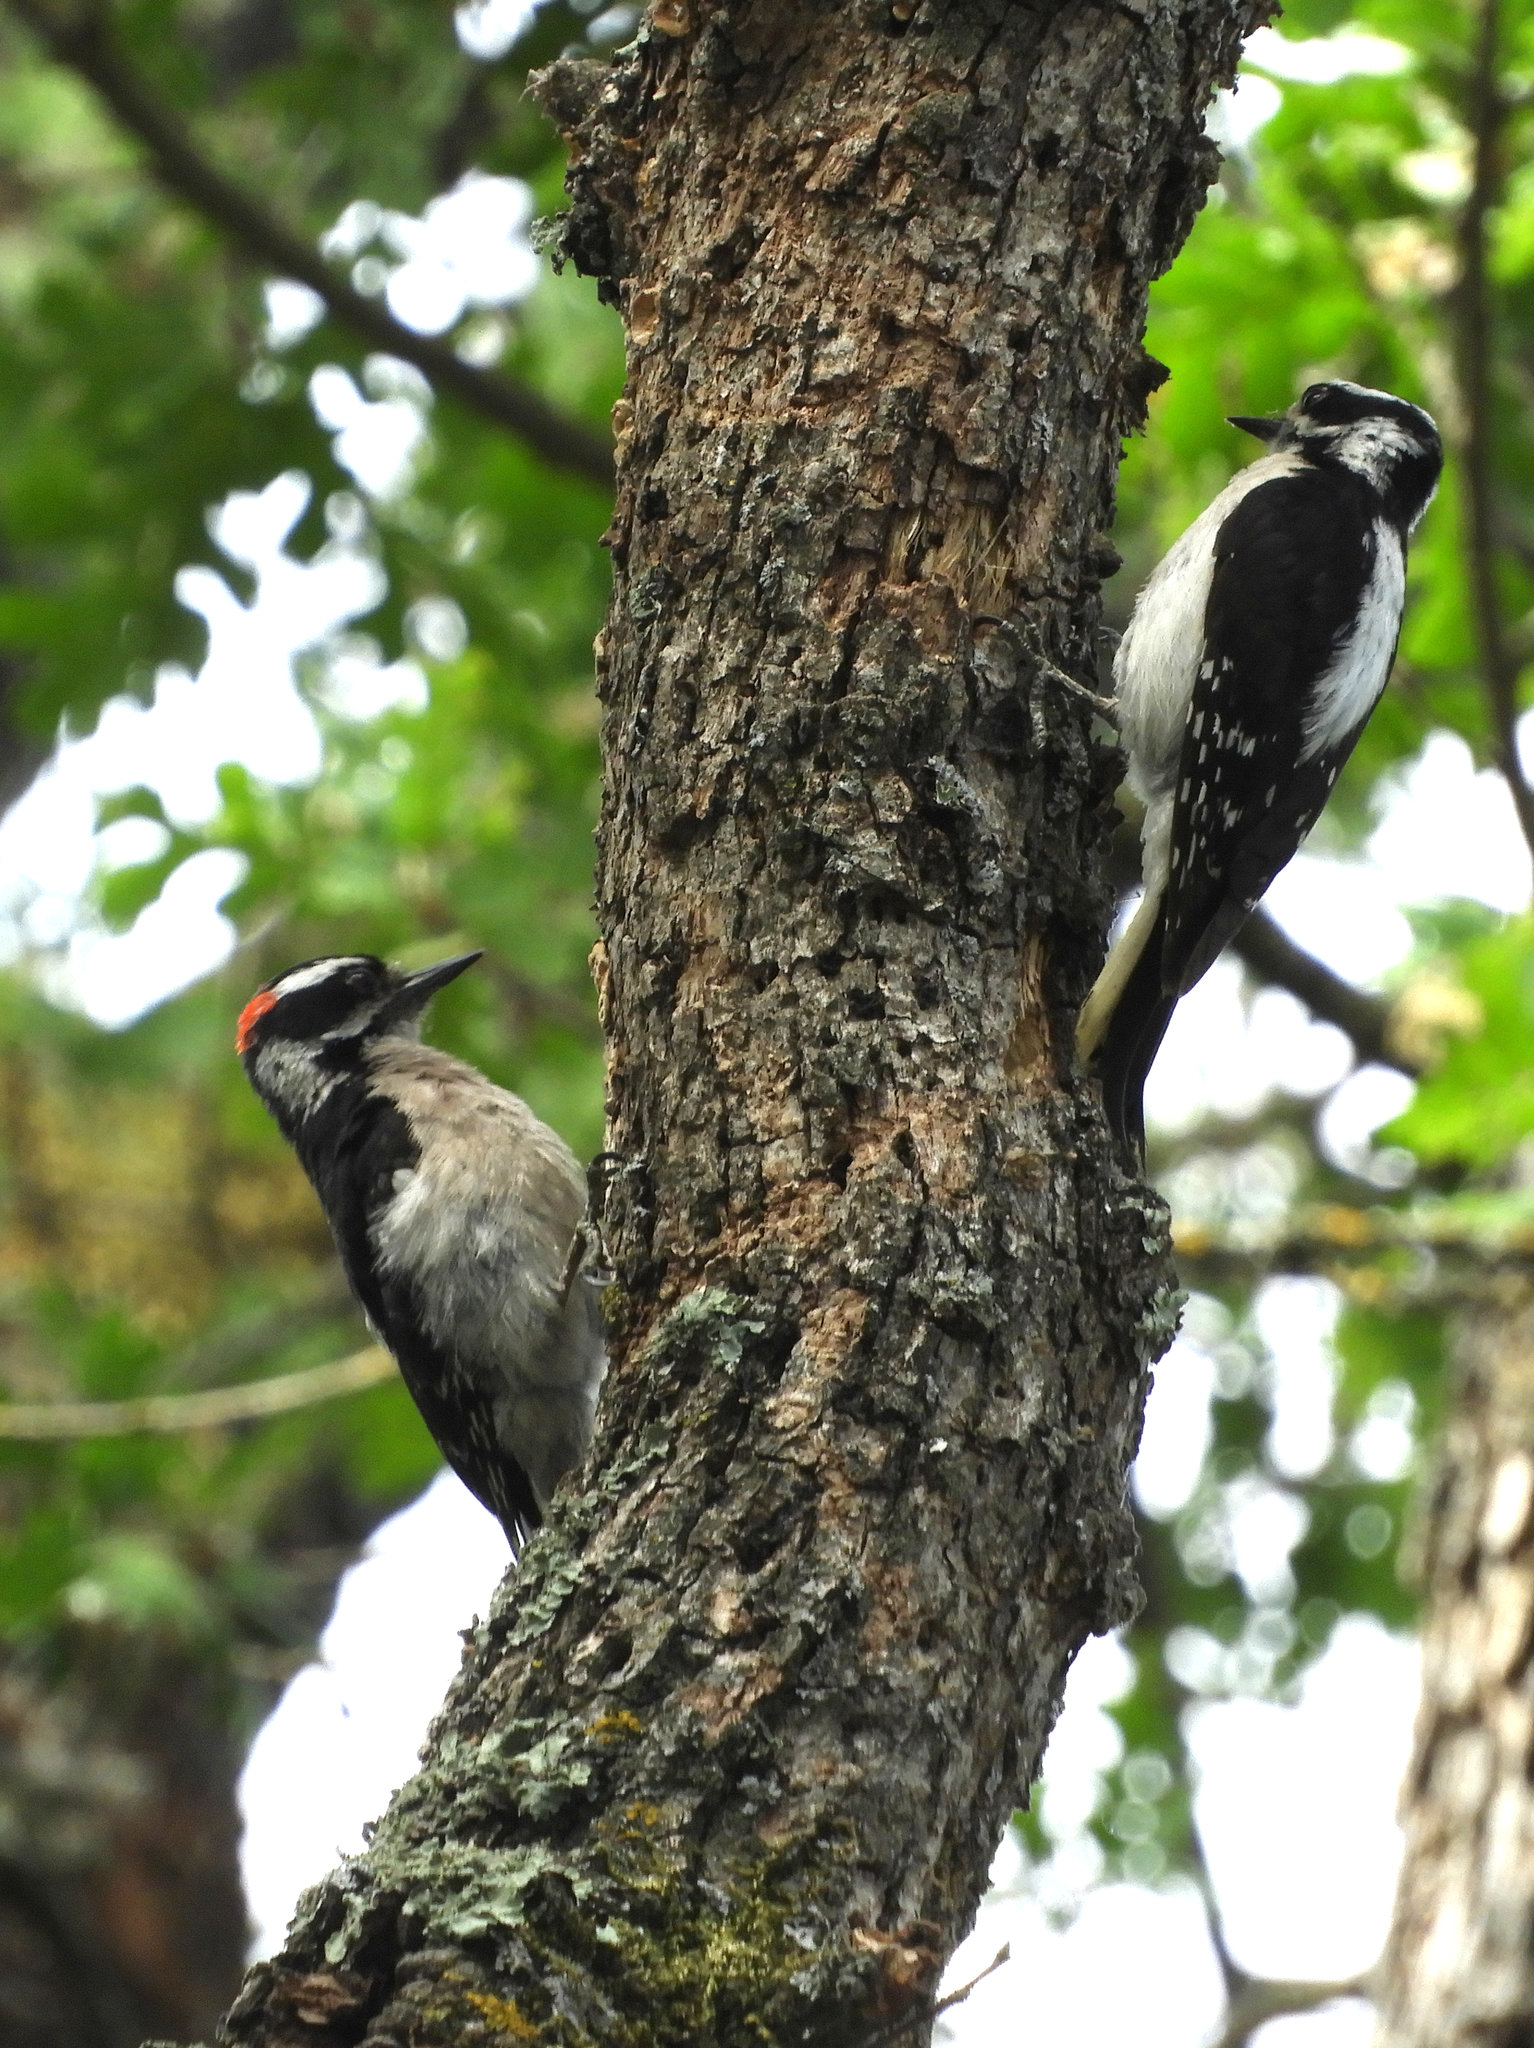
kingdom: Animalia
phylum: Chordata
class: Aves
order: Piciformes
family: Picidae
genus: Dryobates
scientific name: Dryobates pubescens
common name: Downy woodpecker
